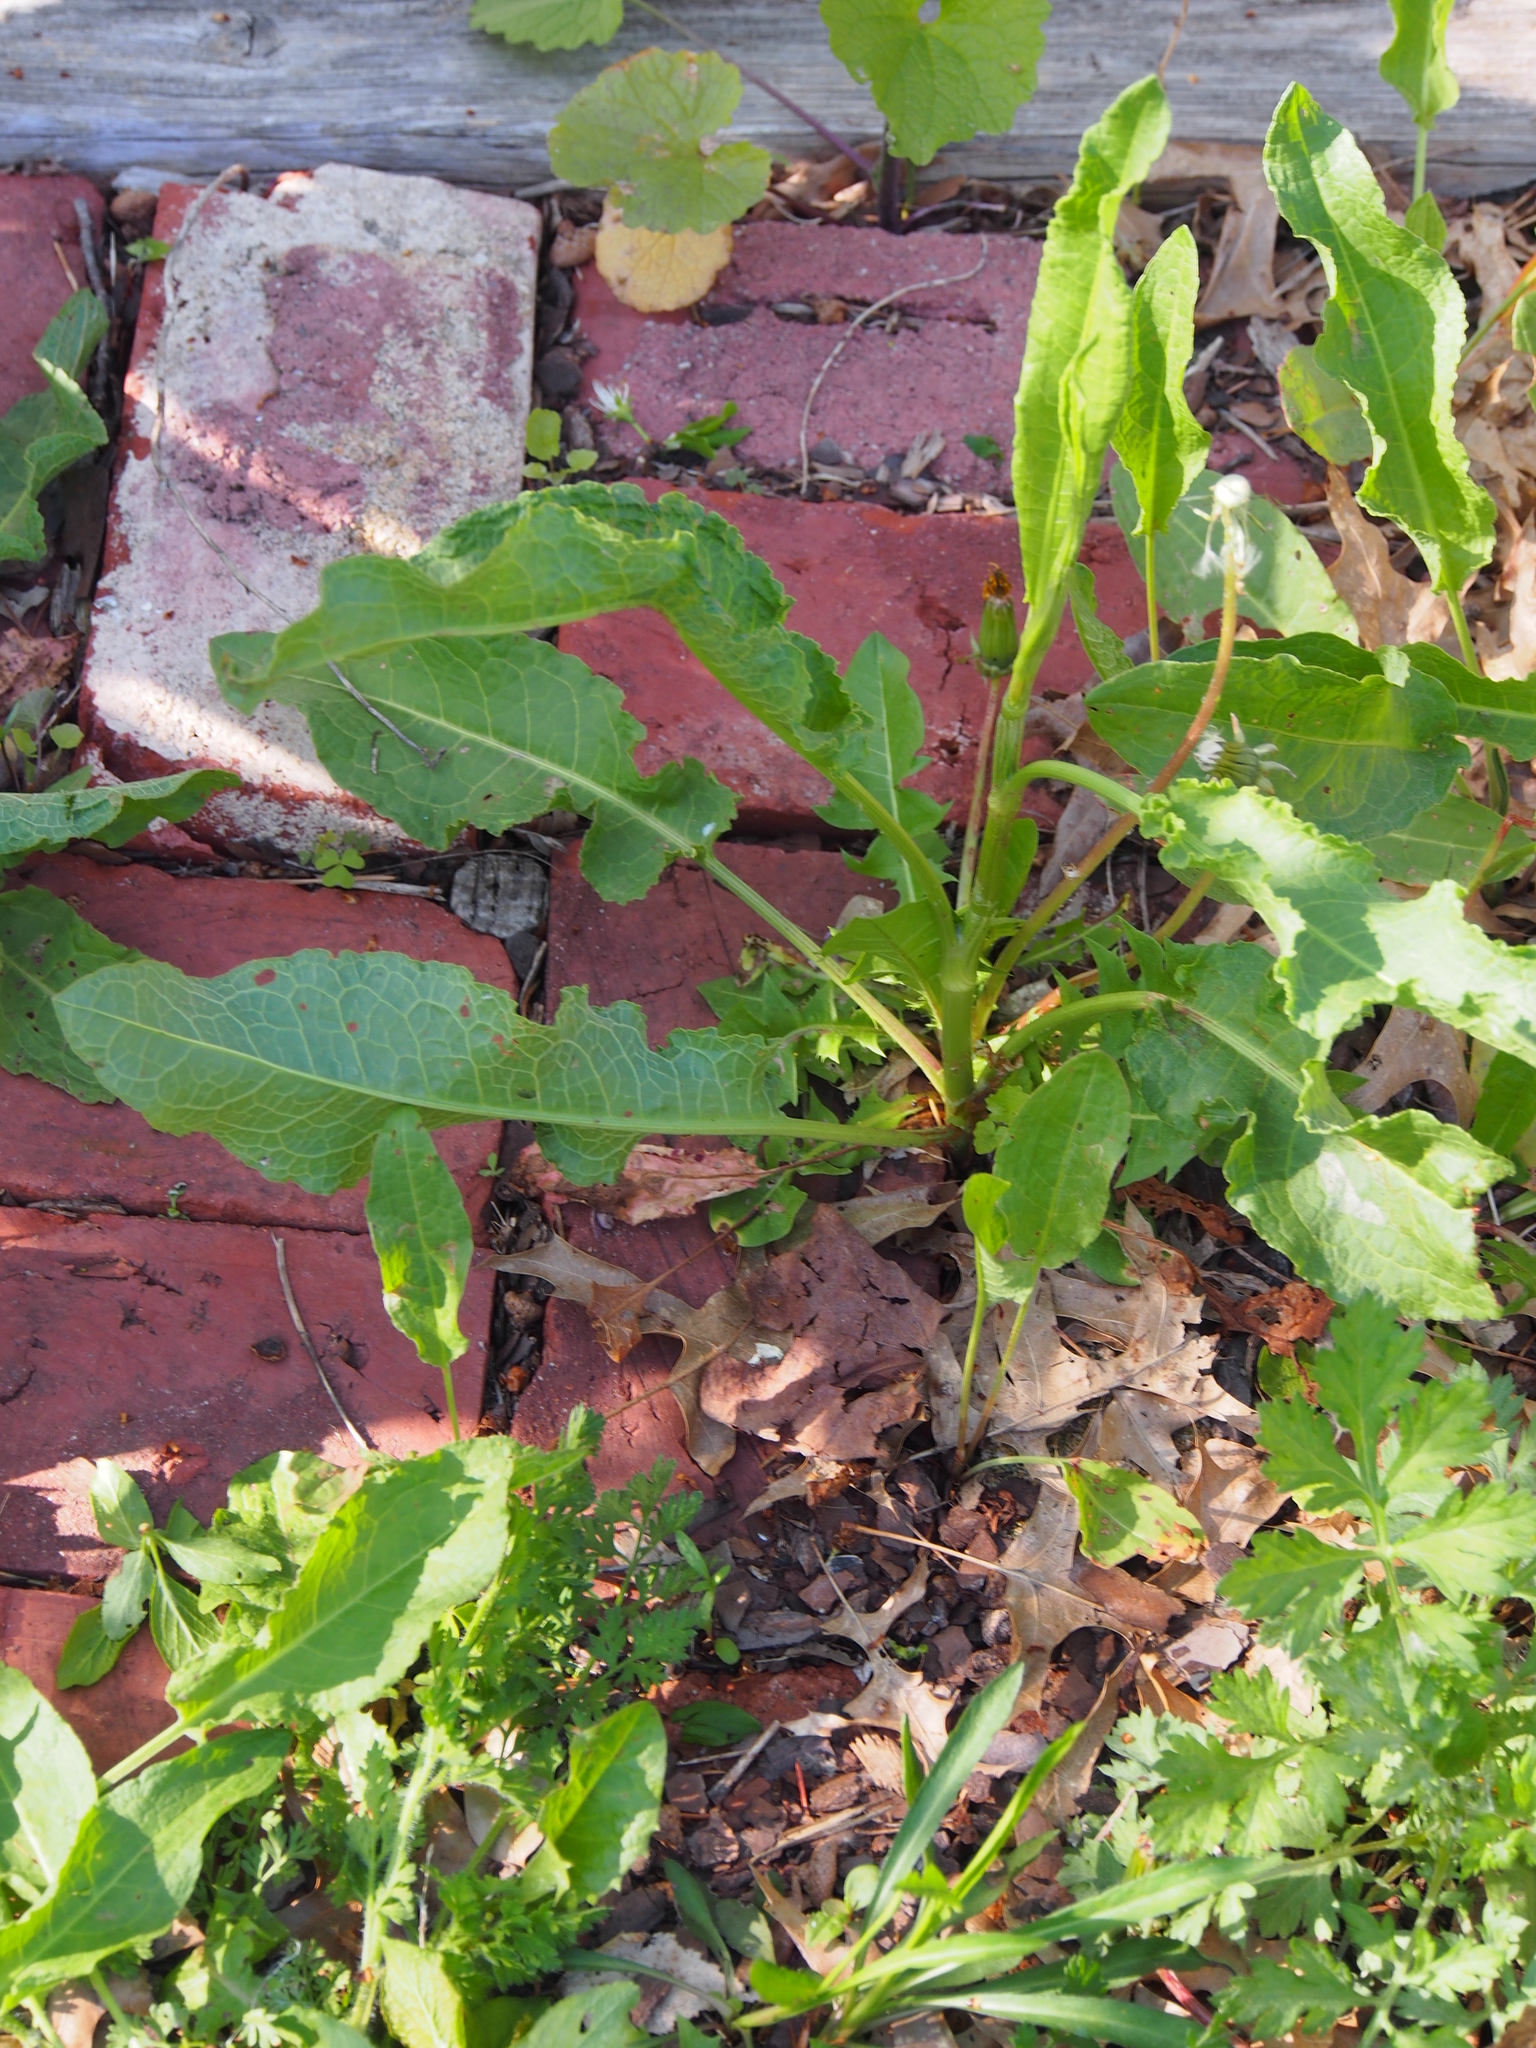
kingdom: Plantae
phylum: Tracheophyta
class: Magnoliopsida
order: Caryophyllales
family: Polygonaceae
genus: Rumex
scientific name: Rumex crispus
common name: Curled dock
